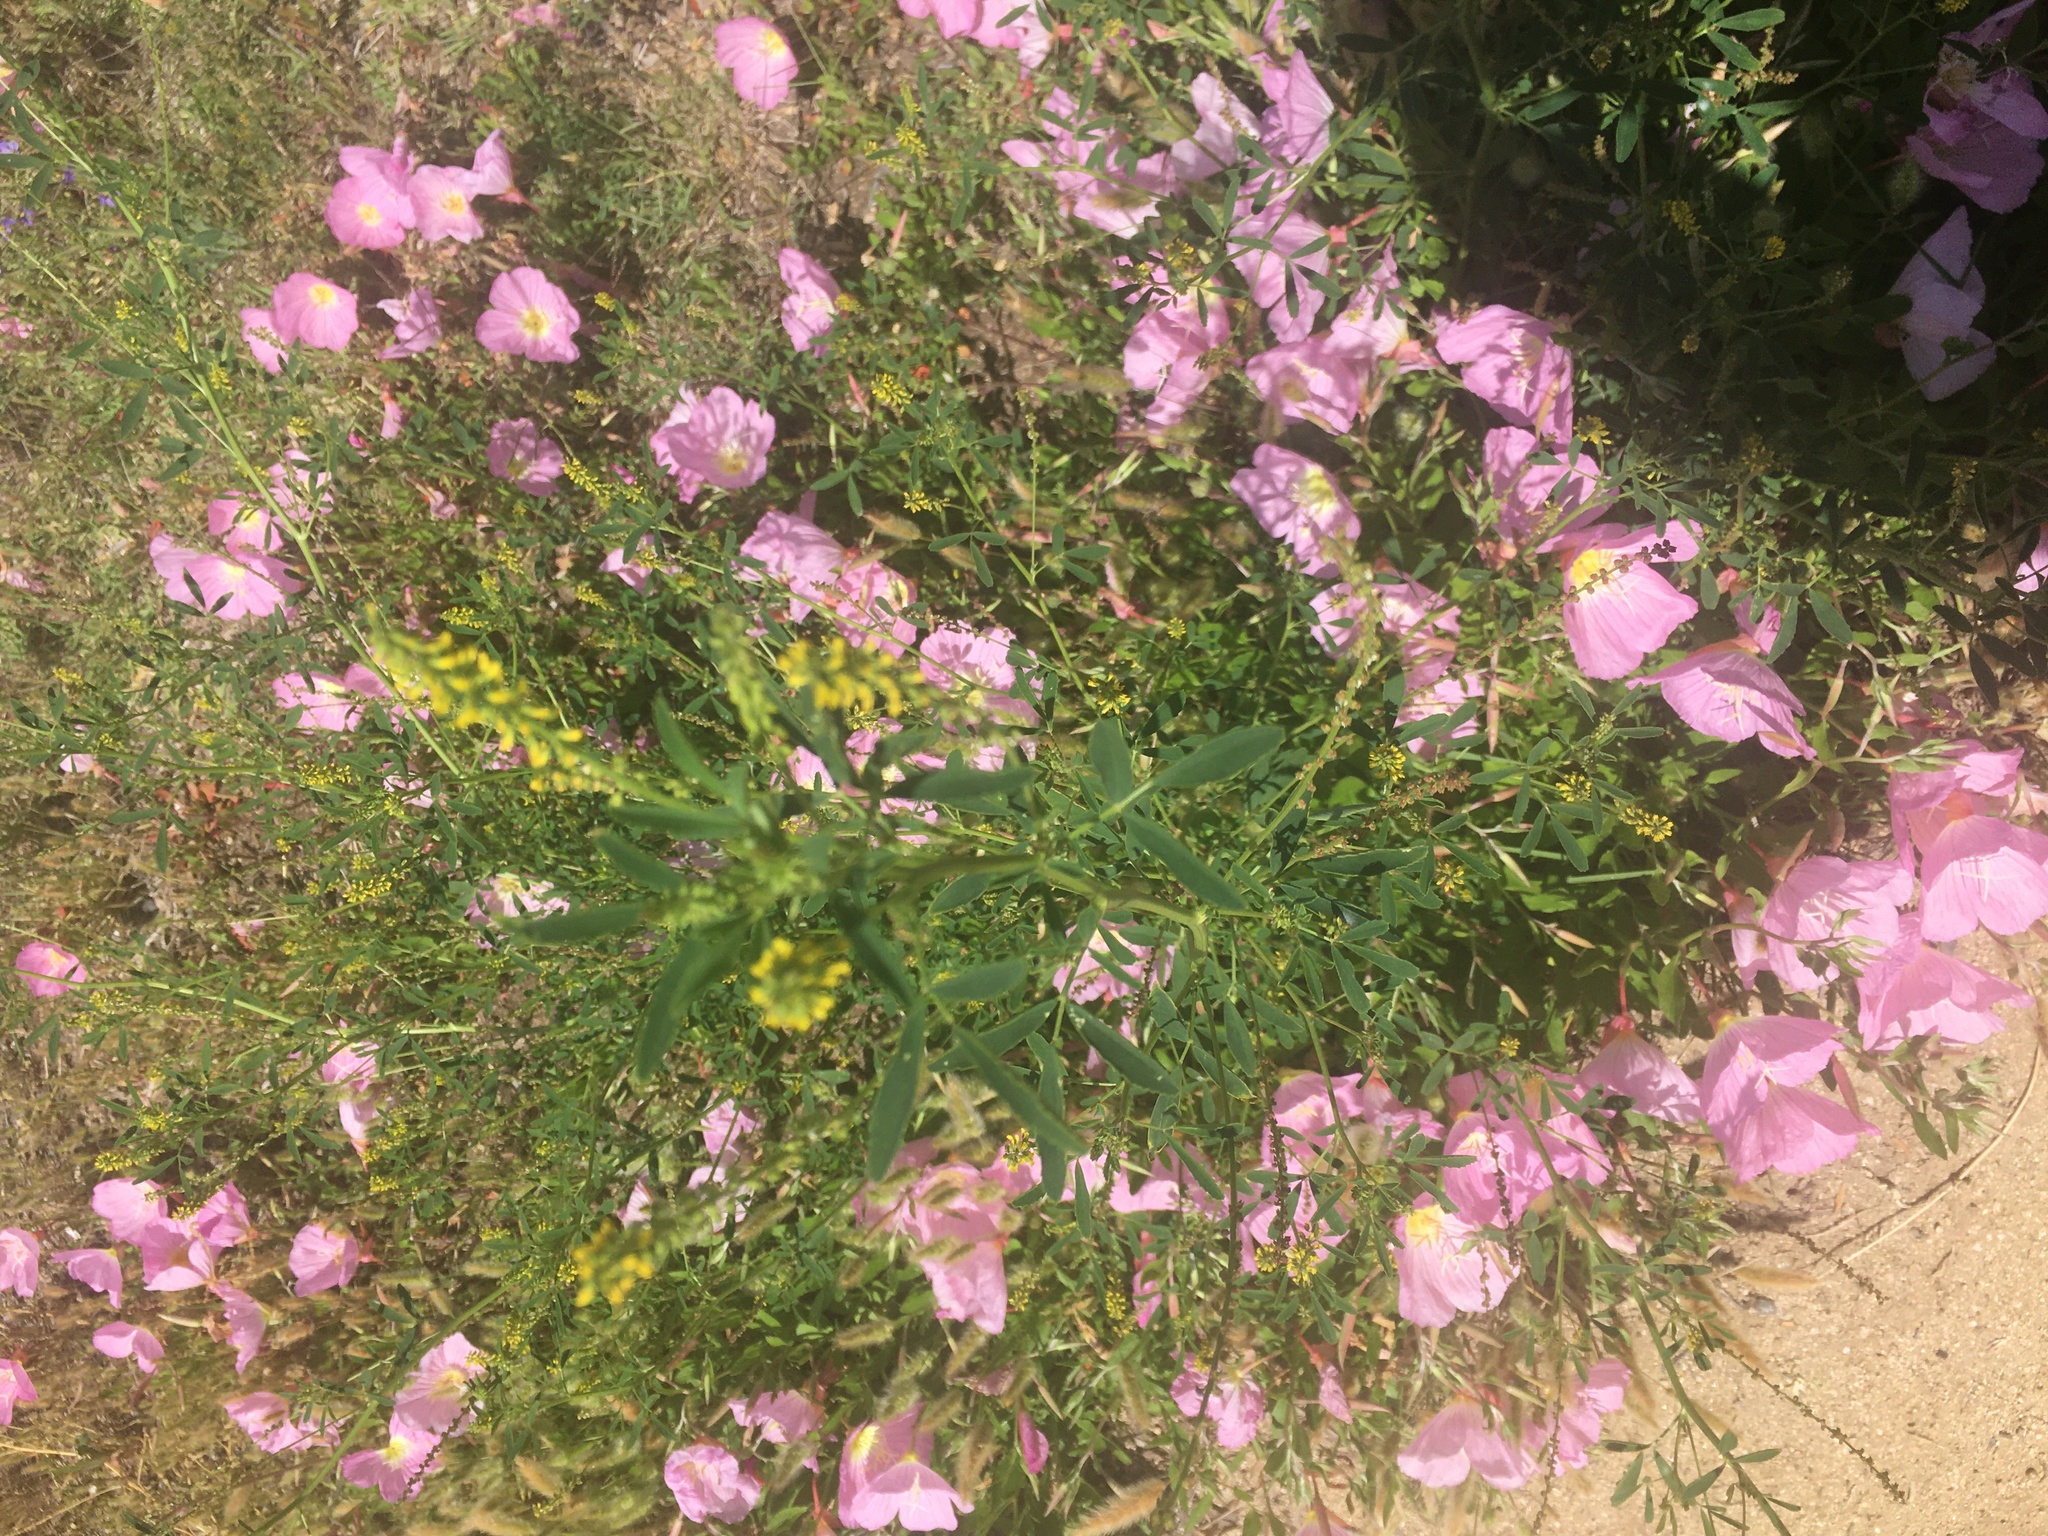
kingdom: Plantae
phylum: Tracheophyta
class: Magnoliopsida
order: Fabales
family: Fabaceae
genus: Melilotus
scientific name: Melilotus indicus
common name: Small melilot
